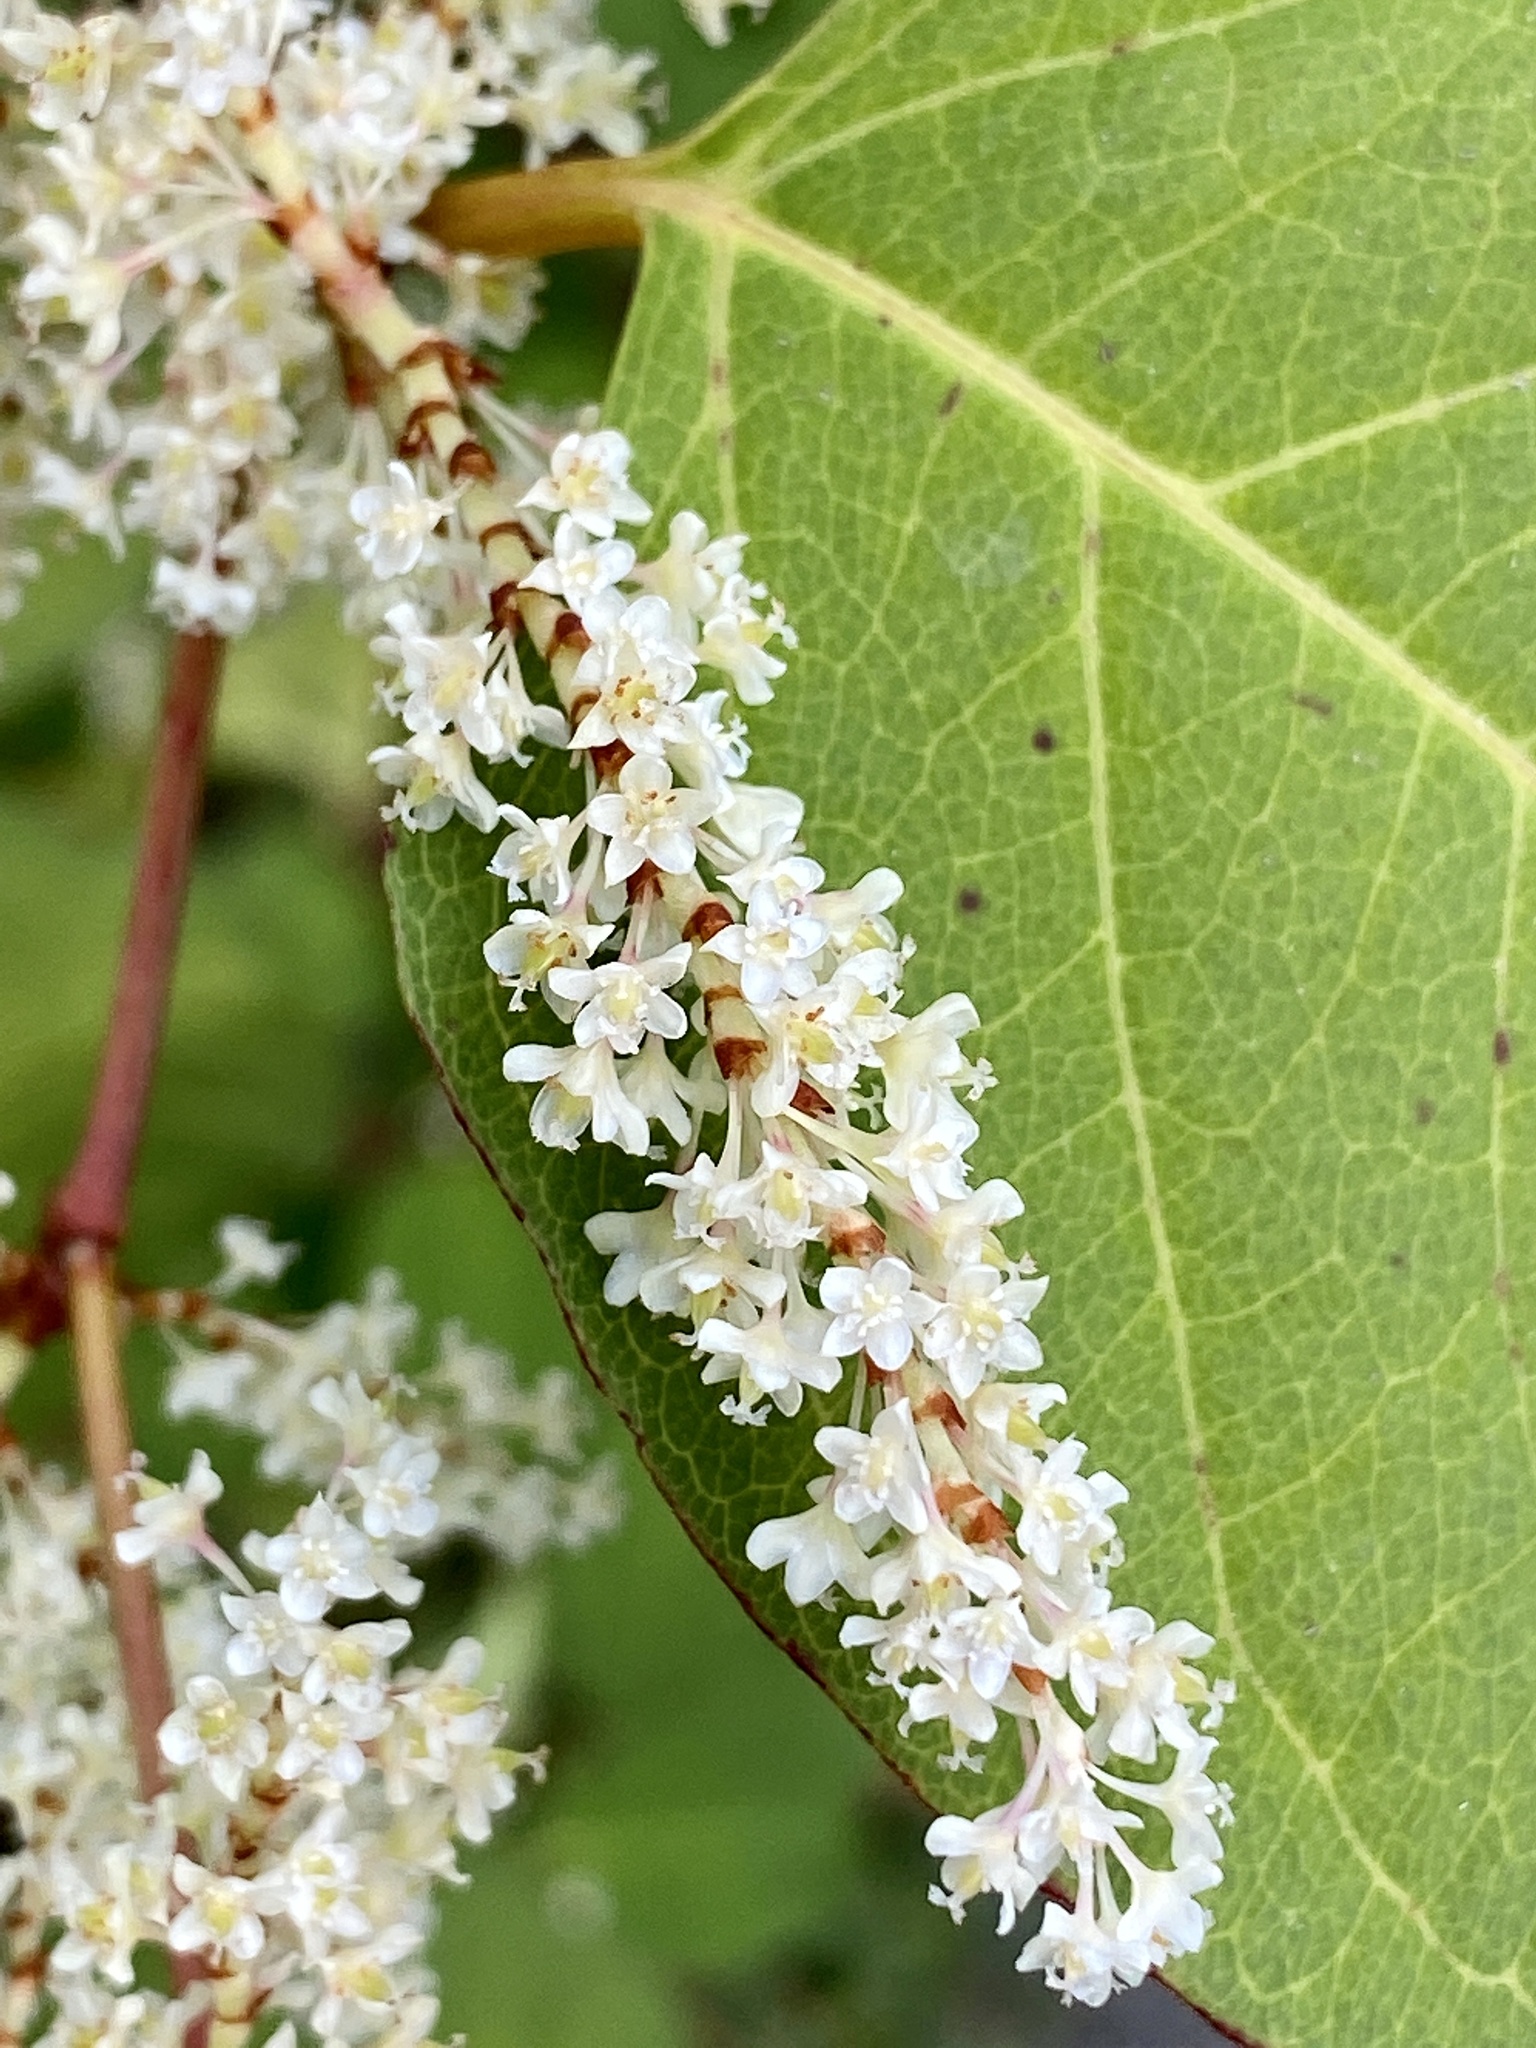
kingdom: Plantae
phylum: Tracheophyta
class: Magnoliopsida
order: Caryophyllales
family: Polygonaceae
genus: Reynoutria
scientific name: Reynoutria japonica
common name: Japanese knotweed
